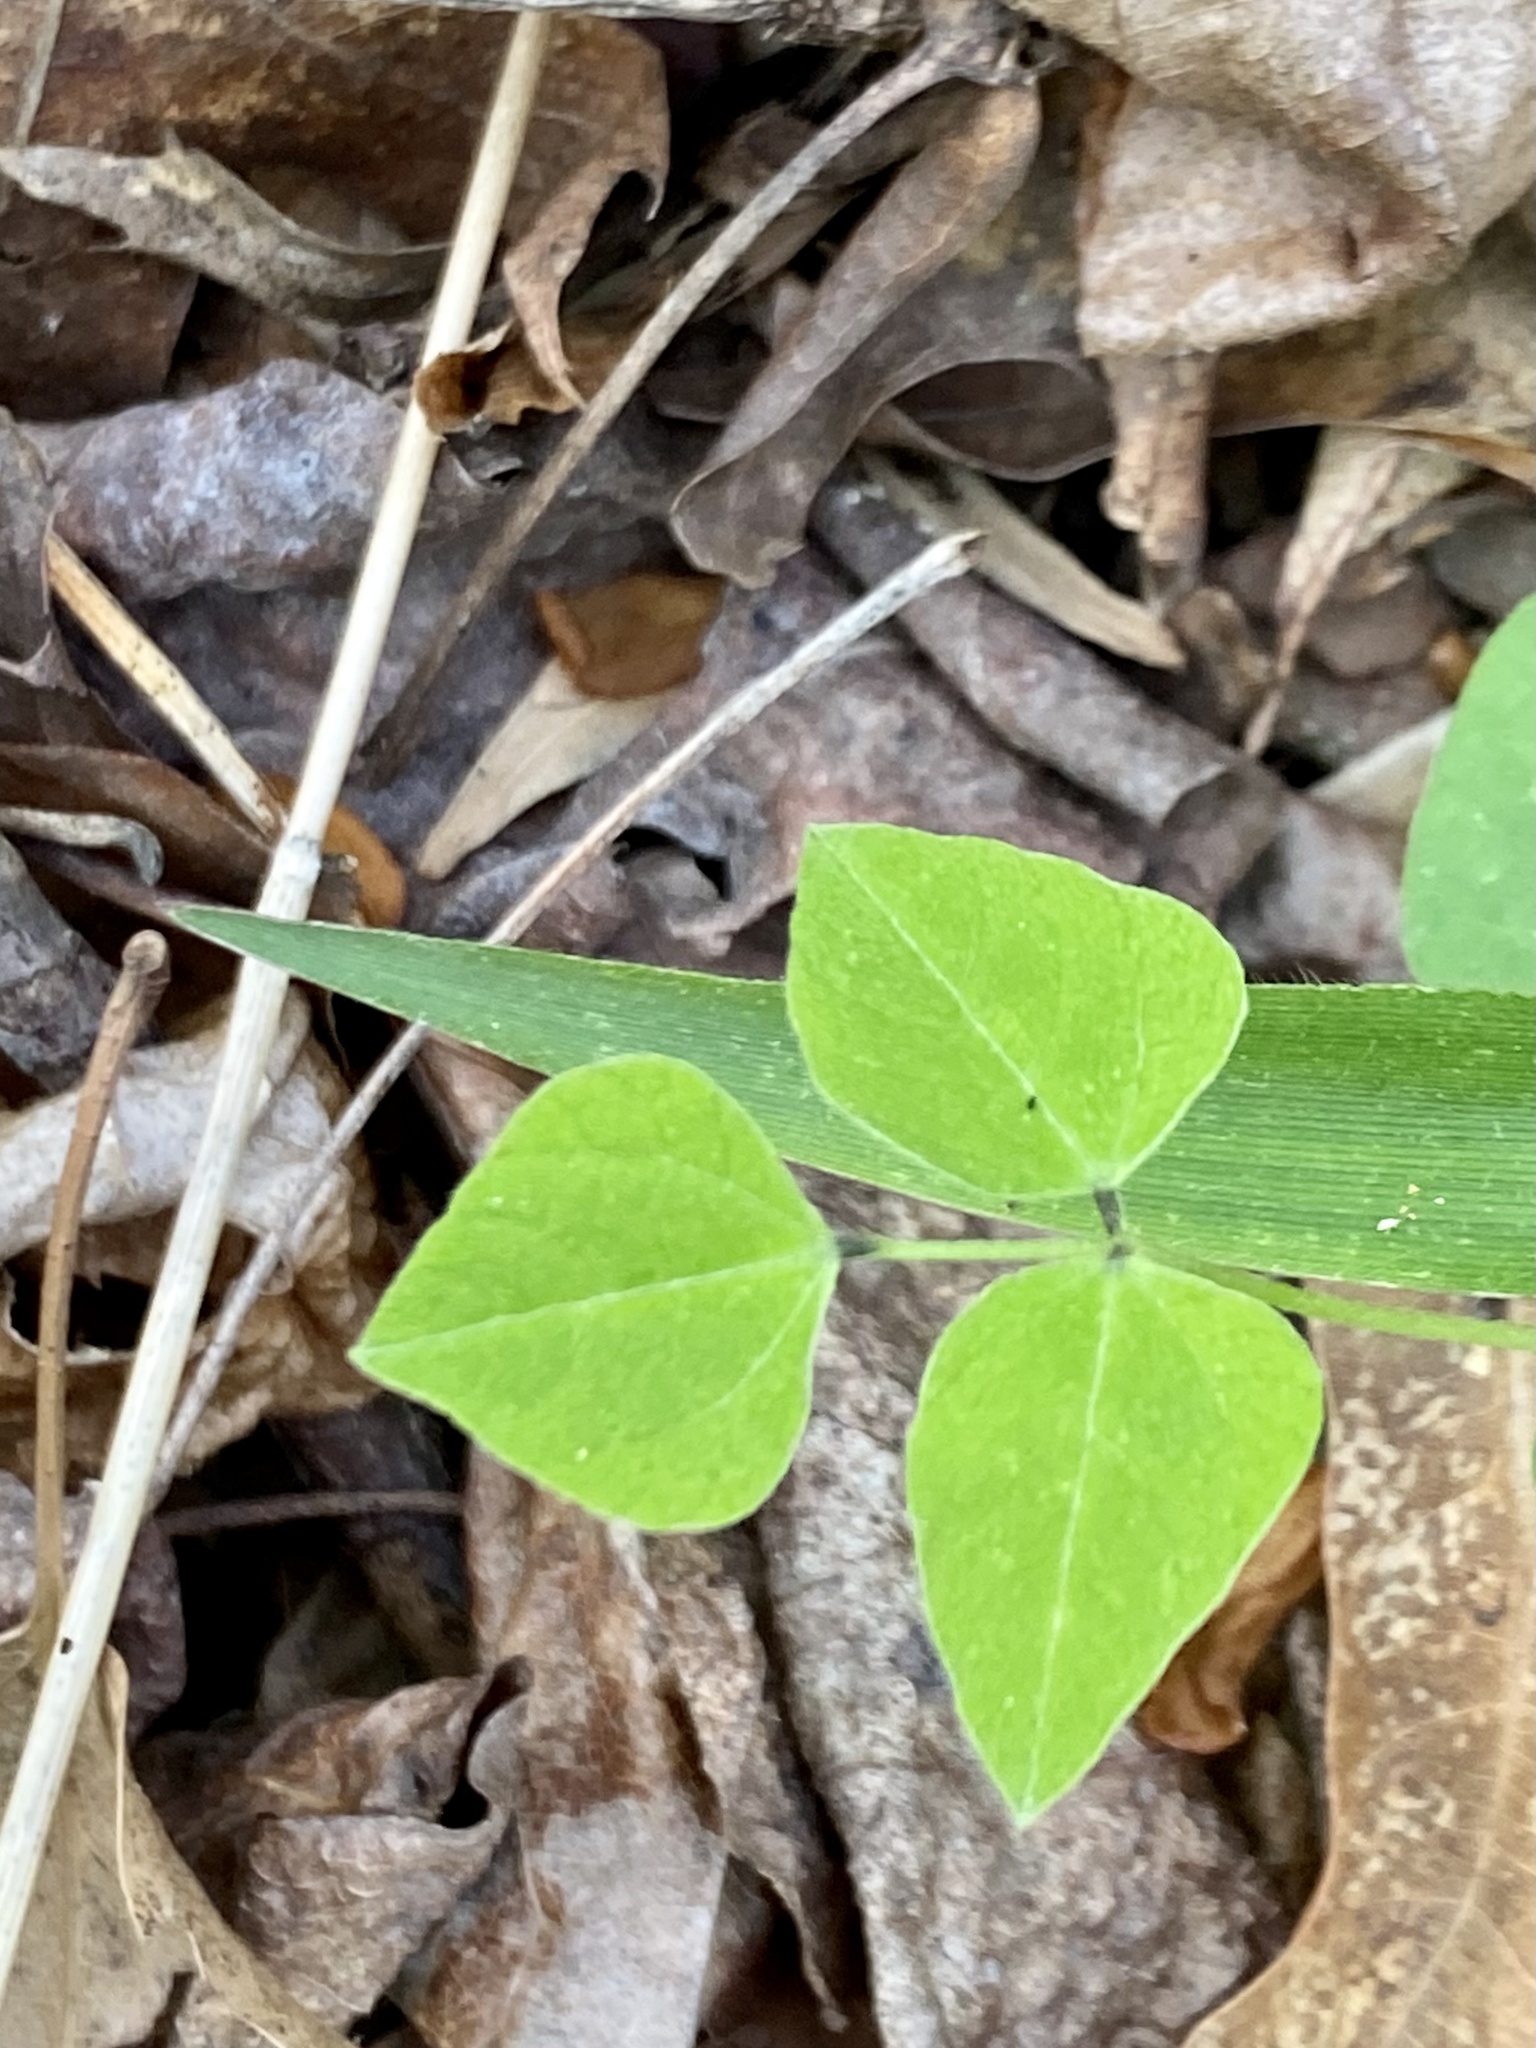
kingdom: Plantae
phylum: Tracheophyta
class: Magnoliopsida
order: Fabales
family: Fabaceae
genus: Amphicarpaea
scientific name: Amphicarpaea bracteata
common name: American hog peanut
